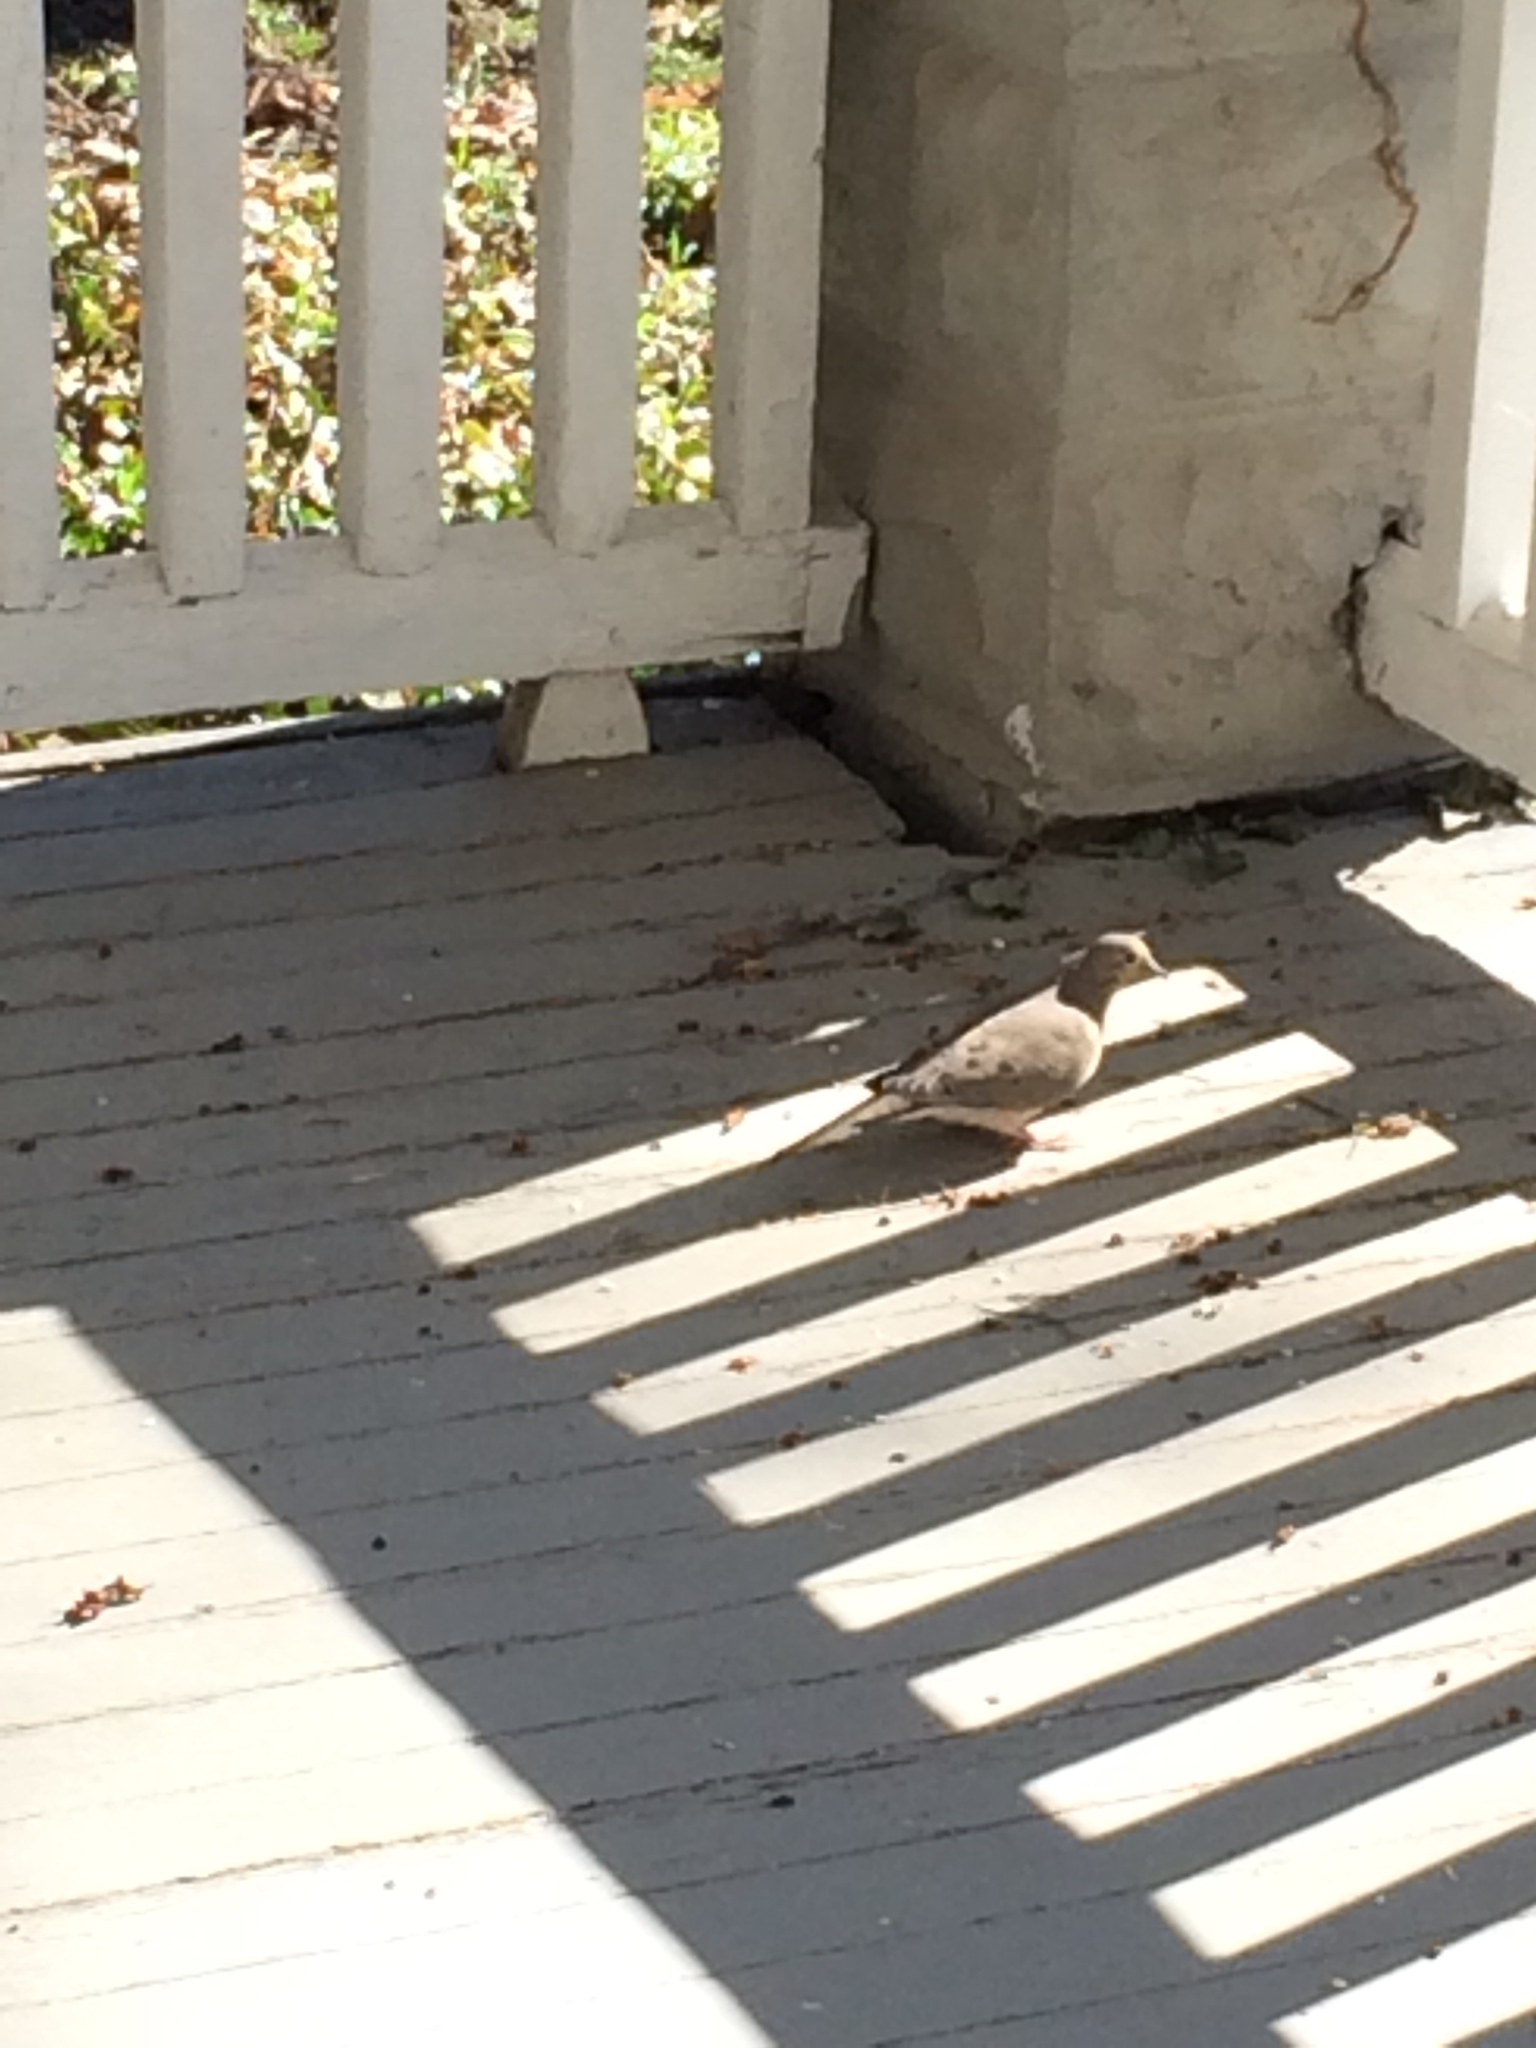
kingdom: Animalia
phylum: Chordata
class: Aves
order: Columbiformes
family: Columbidae
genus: Zenaida
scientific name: Zenaida macroura
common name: Mourning dove
